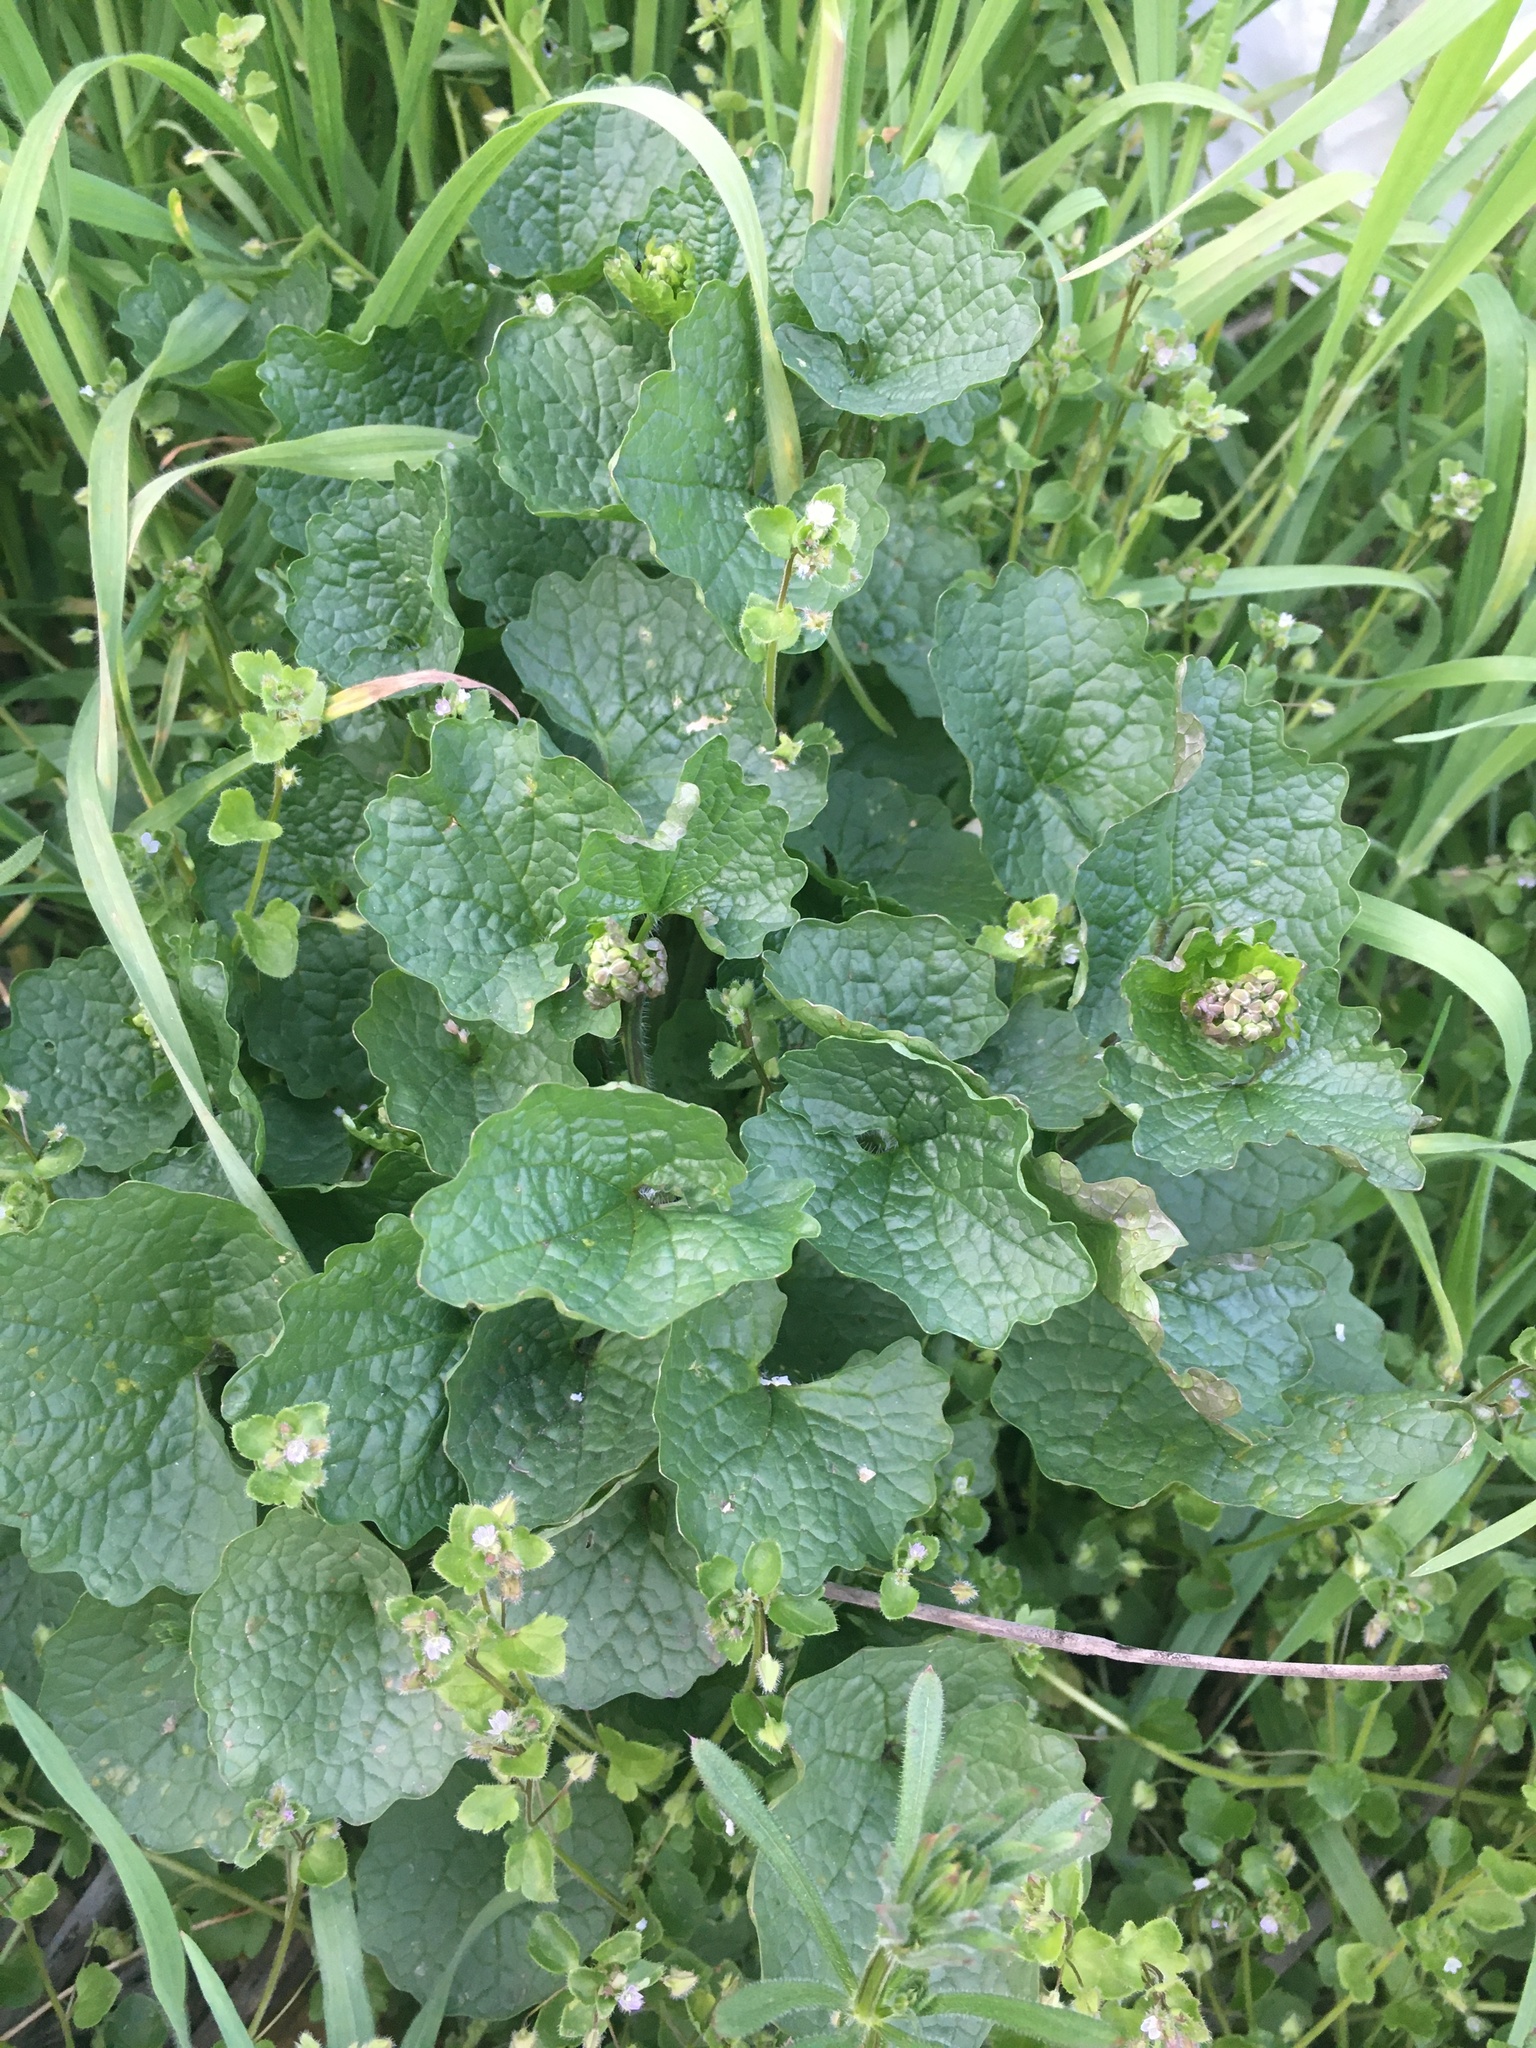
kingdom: Plantae
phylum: Tracheophyta
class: Magnoliopsida
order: Brassicales
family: Brassicaceae
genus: Alliaria
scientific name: Alliaria petiolata
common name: Garlic mustard
